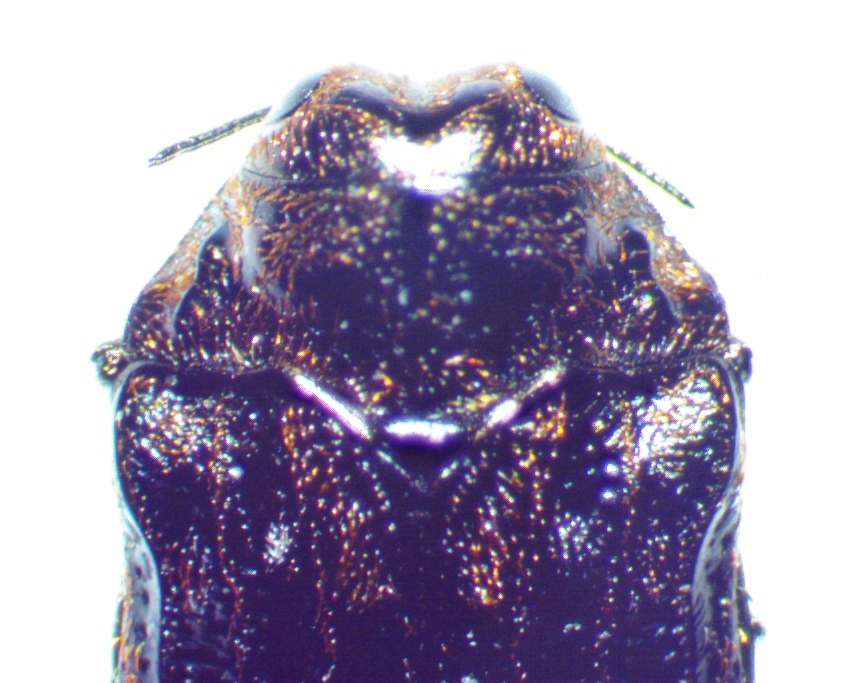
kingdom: Animalia
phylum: Arthropoda
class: Insecta
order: Coleoptera
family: Buprestidae
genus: Brachys
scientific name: Brachys ovatus
